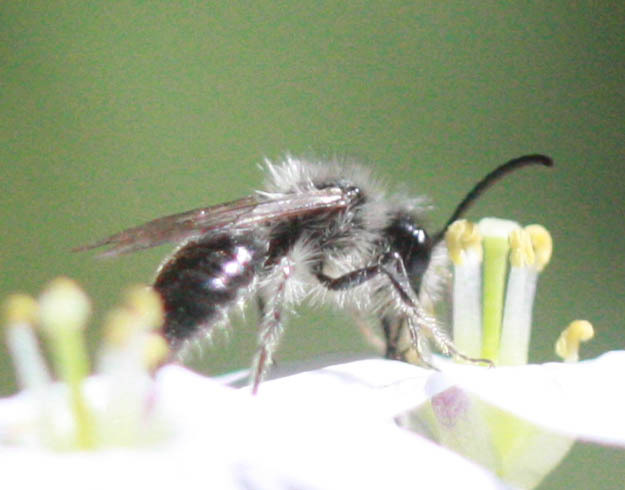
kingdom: Animalia
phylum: Arthropoda
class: Insecta
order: Hymenoptera
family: Andrenidae
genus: Andrena
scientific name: Andrena
